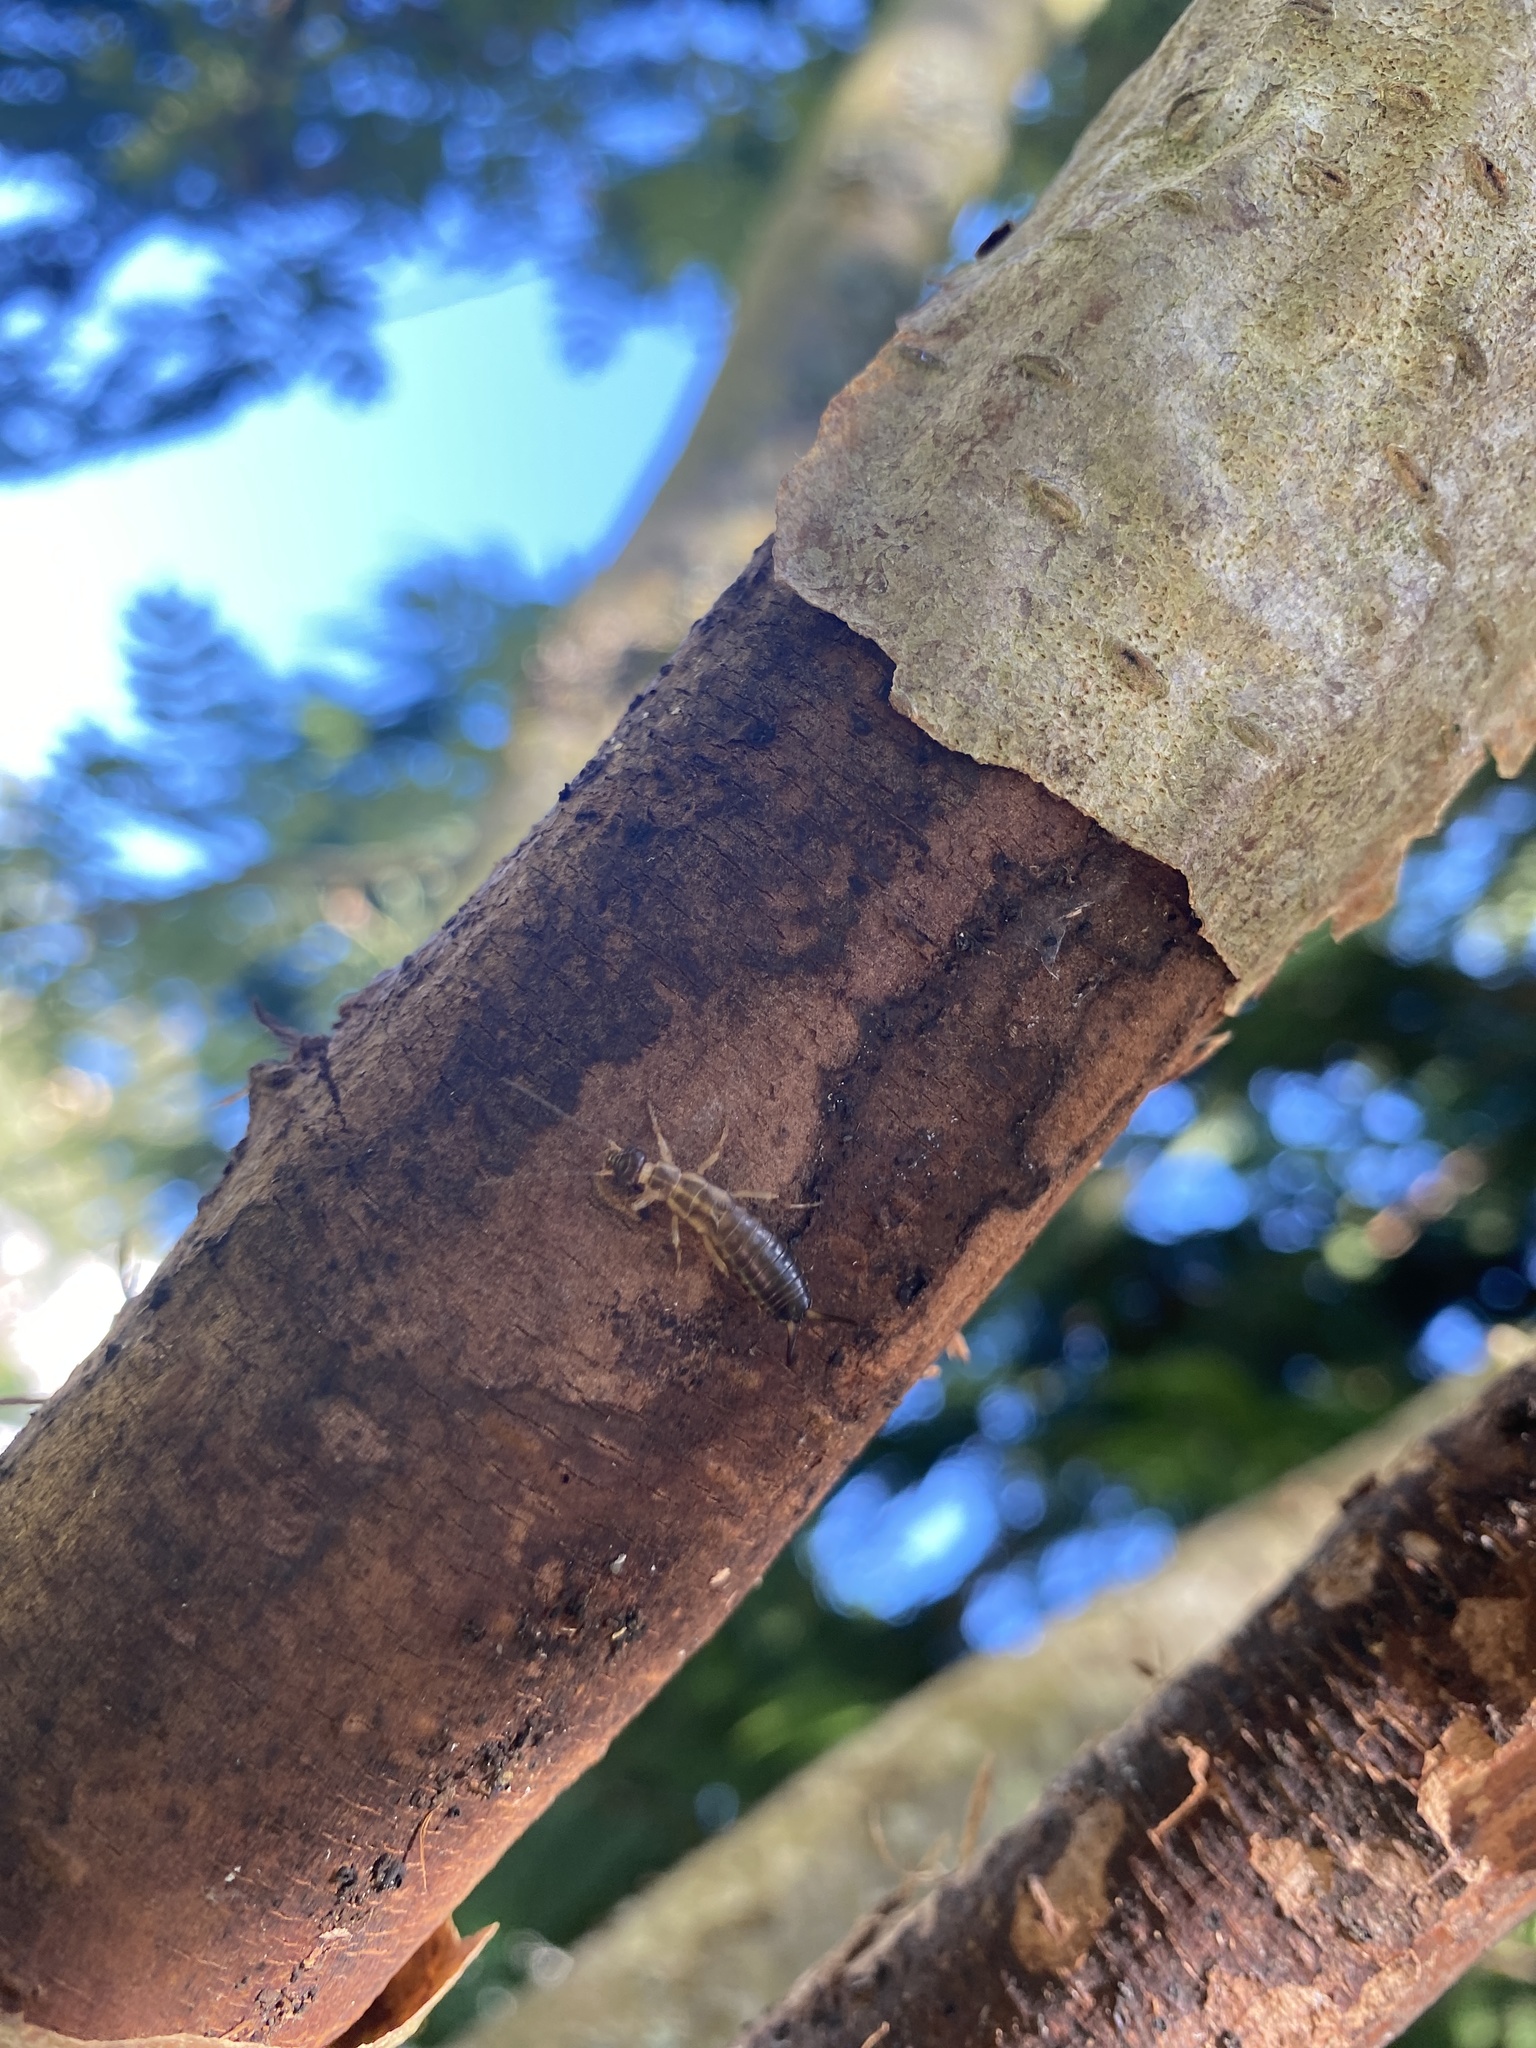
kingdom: Animalia
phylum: Arthropoda
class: Insecta
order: Dermaptera
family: Forficulidae
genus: Forficula
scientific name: Forficula
